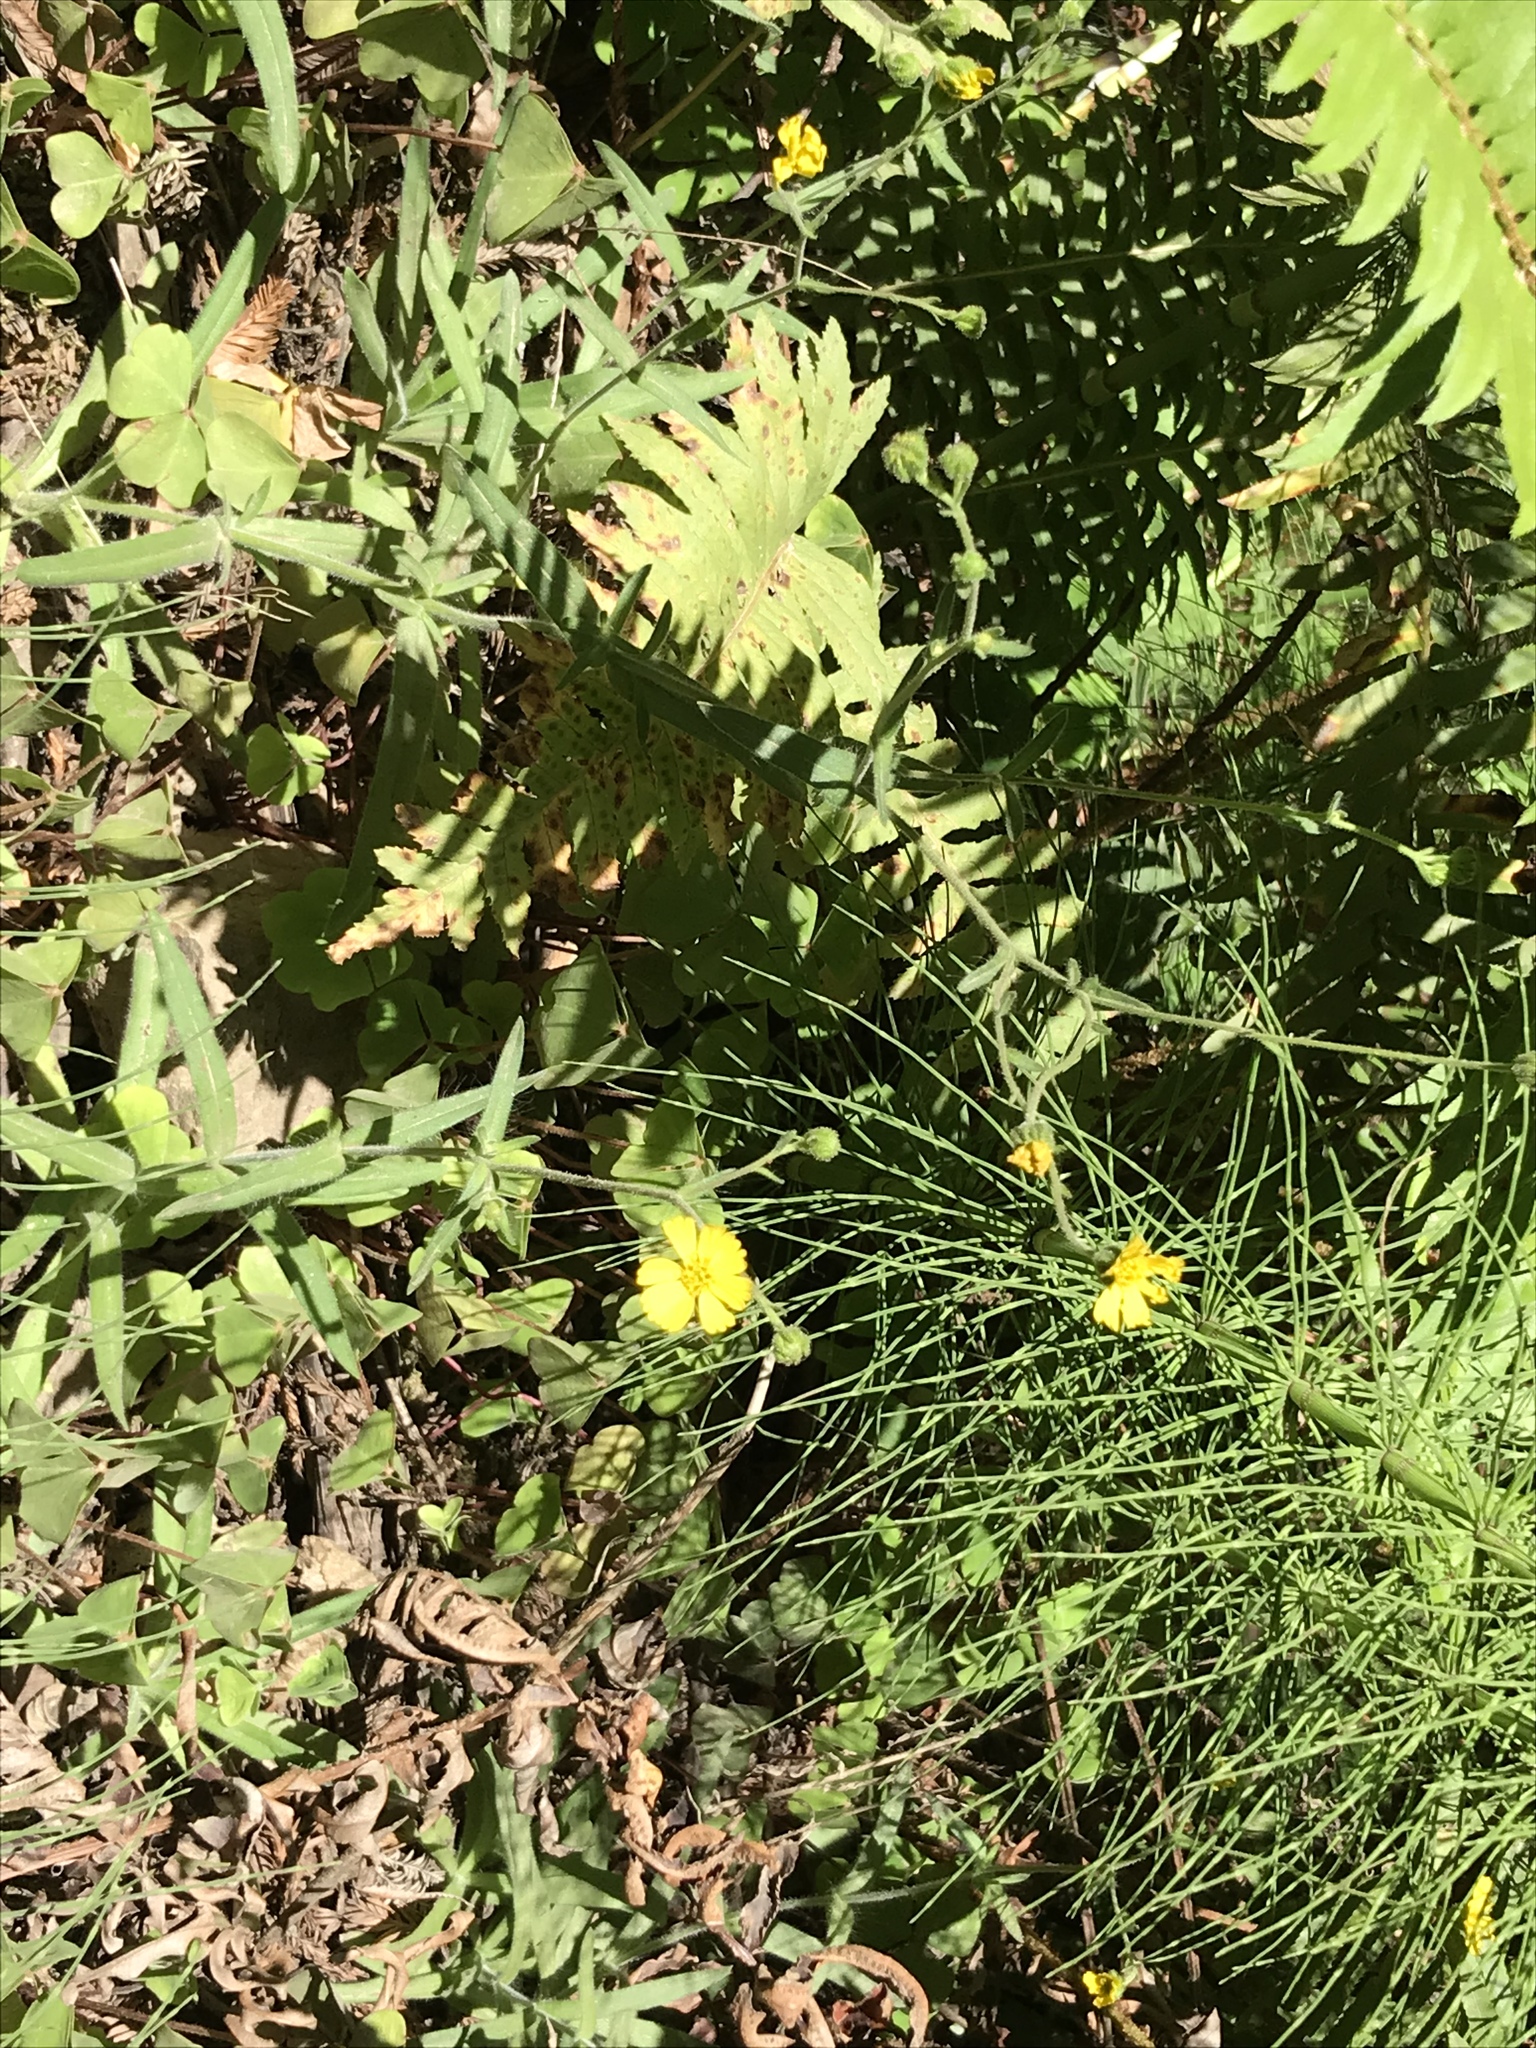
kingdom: Plantae
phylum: Tracheophyta
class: Magnoliopsida
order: Asterales
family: Asteraceae
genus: Anisocarpus
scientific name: Anisocarpus madioides
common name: Woodland madia
